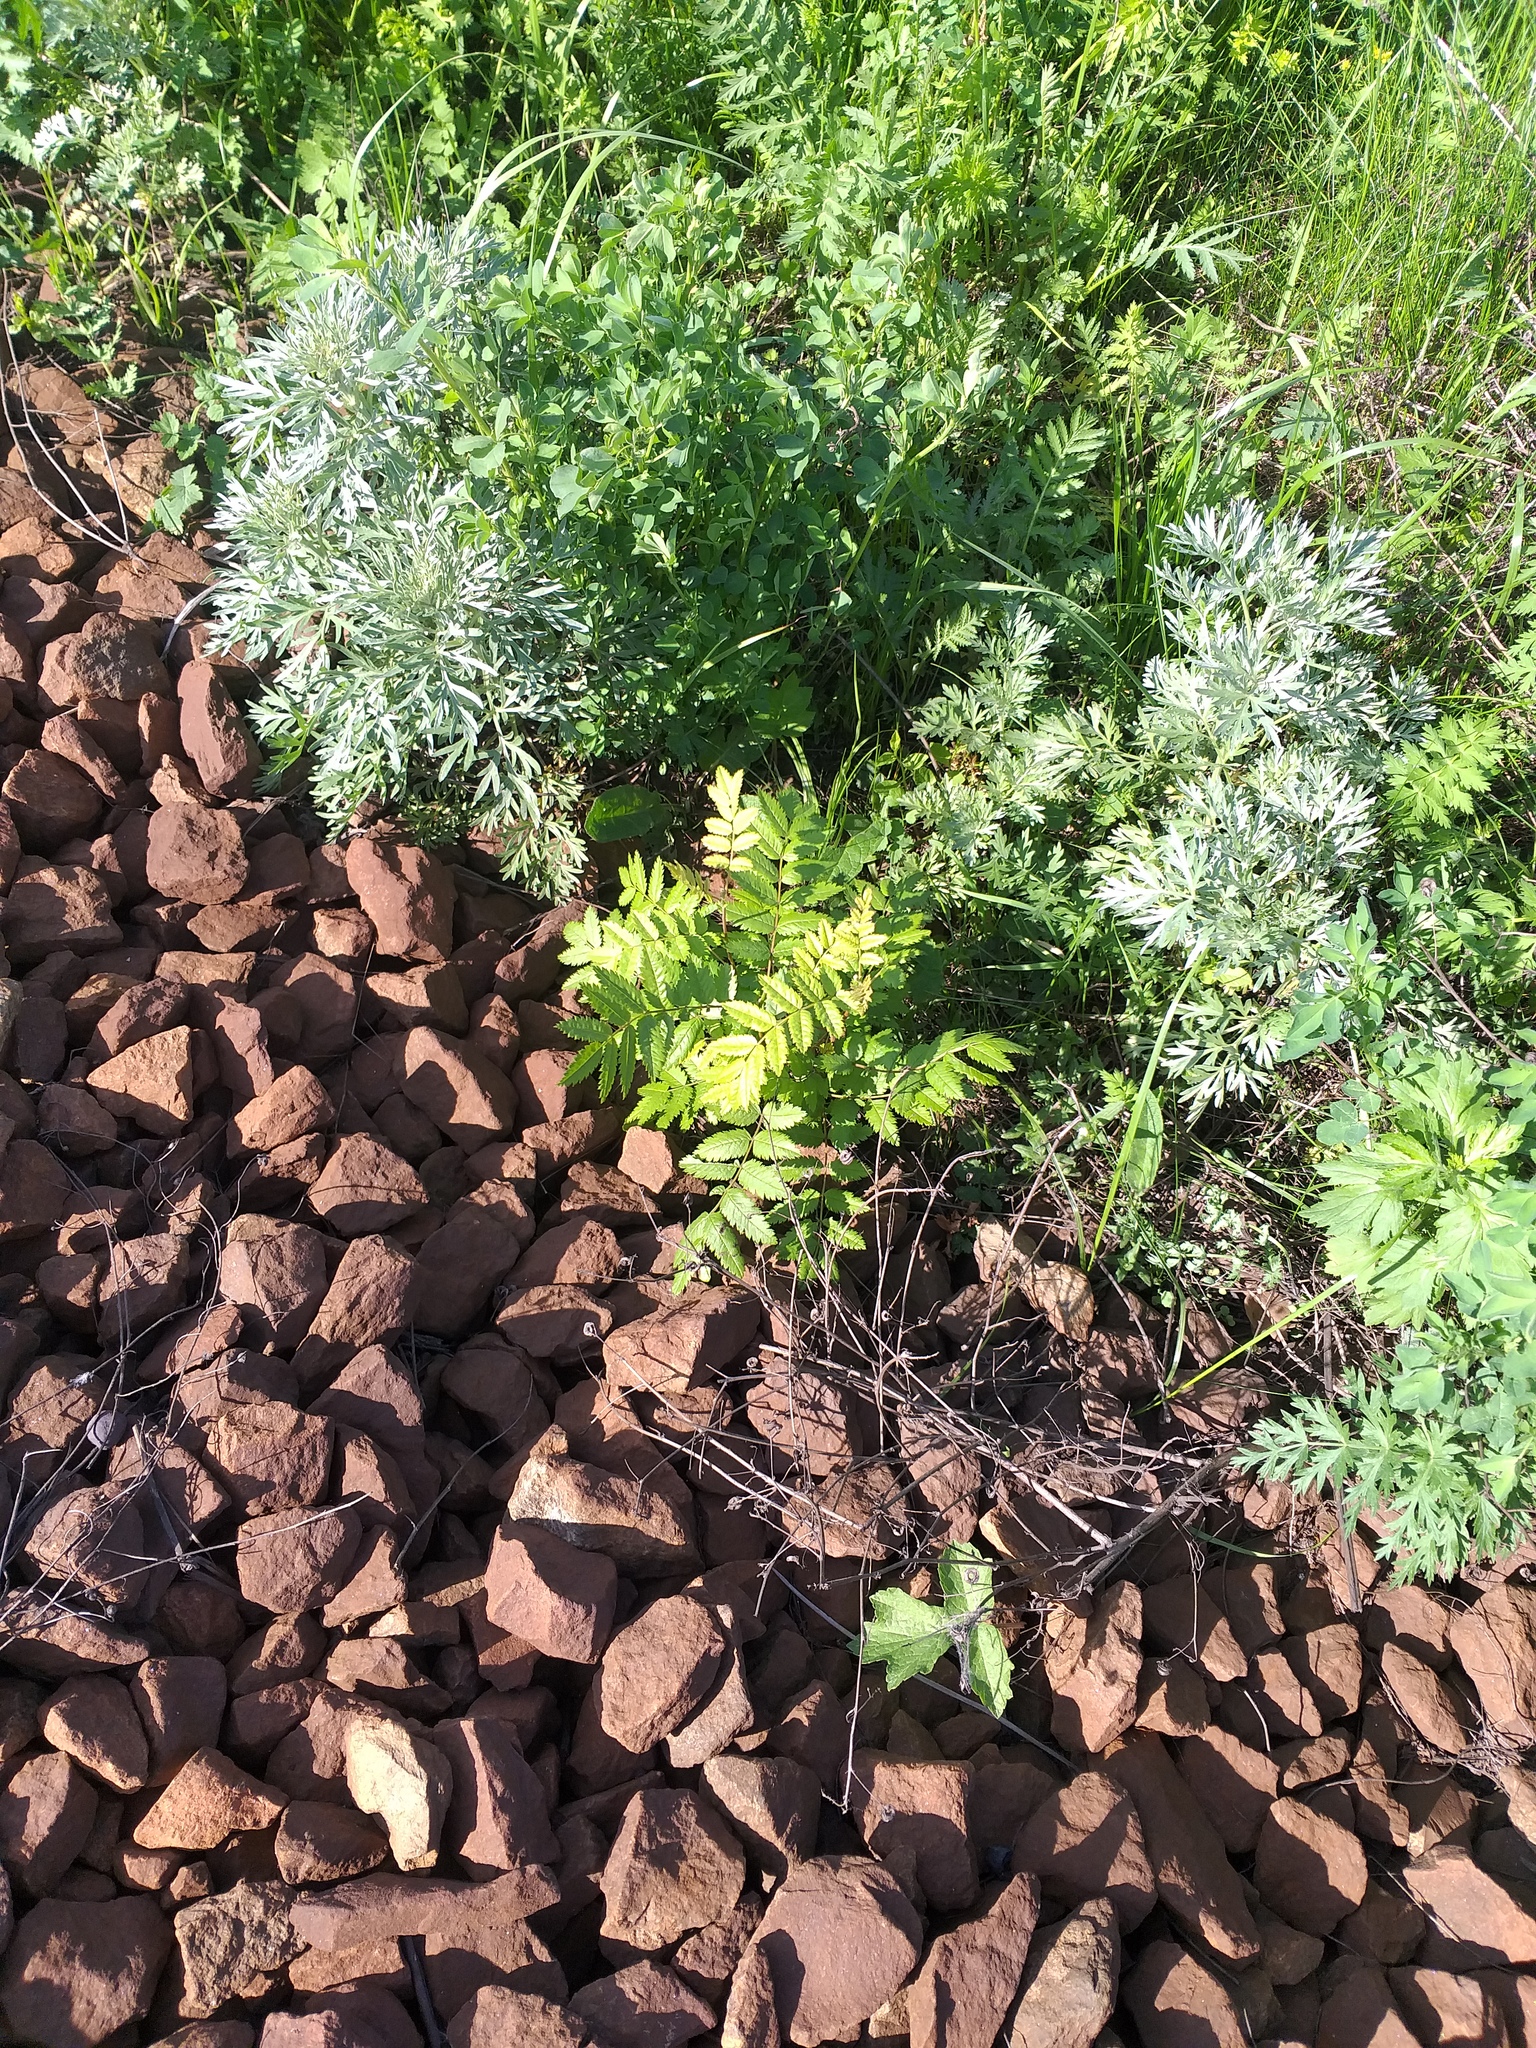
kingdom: Plantae
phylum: Tracheophyta
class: Magnoliopsida
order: Rosales
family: Rosaceae
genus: Sorbus
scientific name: Sorbus aucuparia
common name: Rowan
